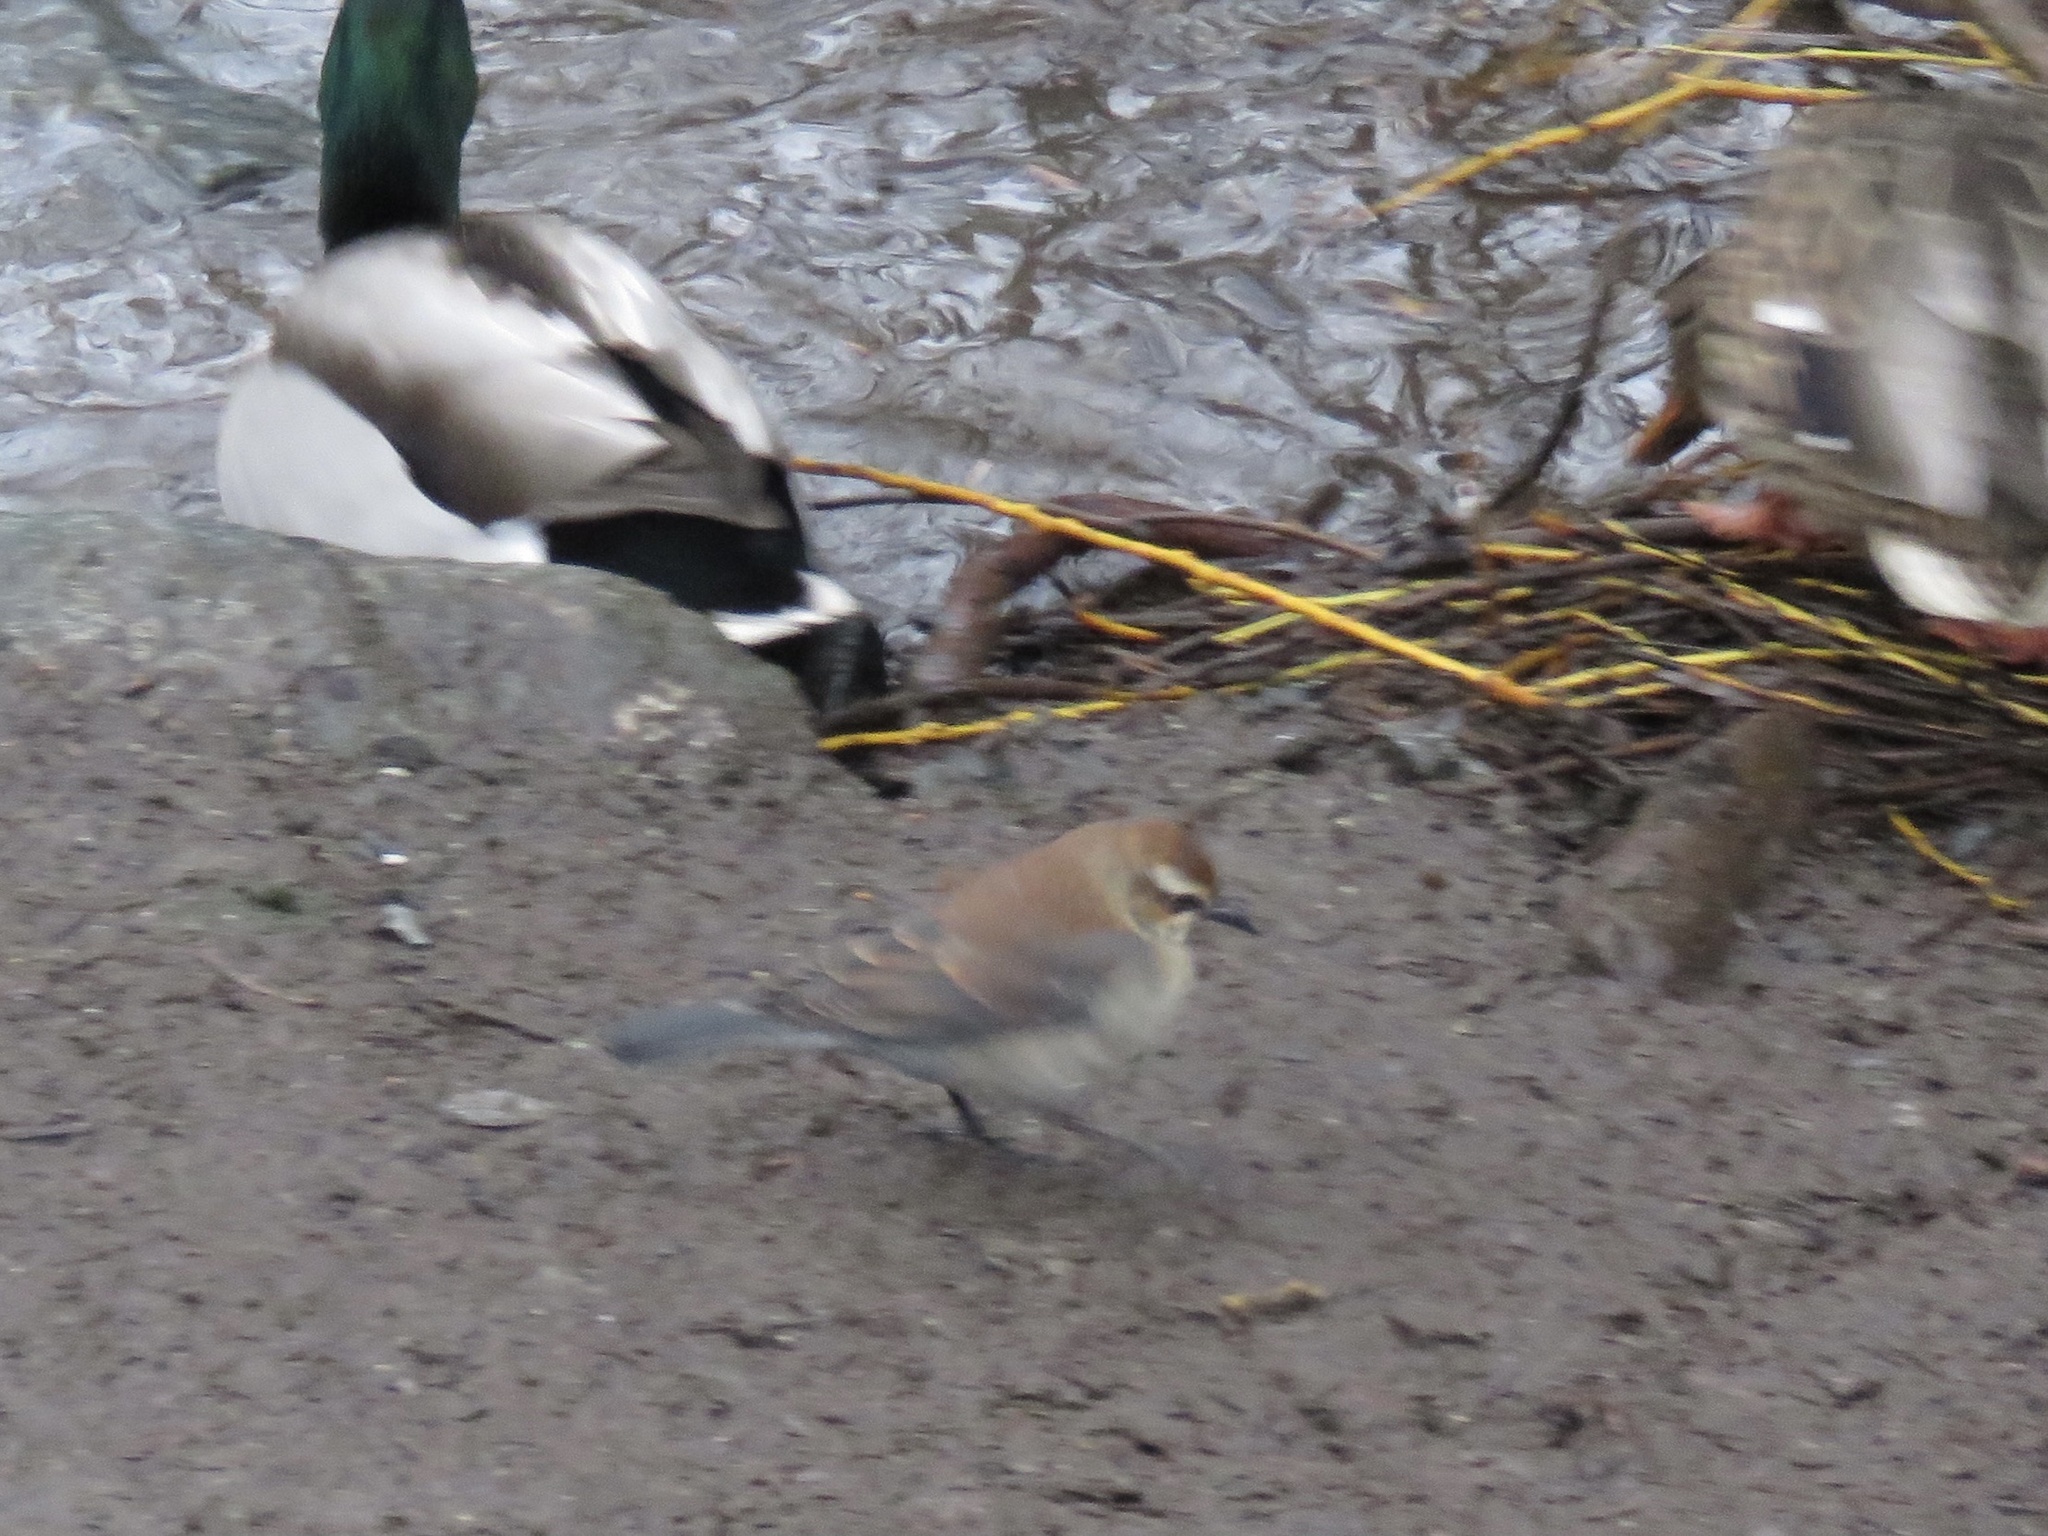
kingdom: Animalia
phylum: Chordata
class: Aves
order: Passeriformes
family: Icteridae
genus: Euphagus
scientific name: Euphagus carolinus
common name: Rusty blackbird
